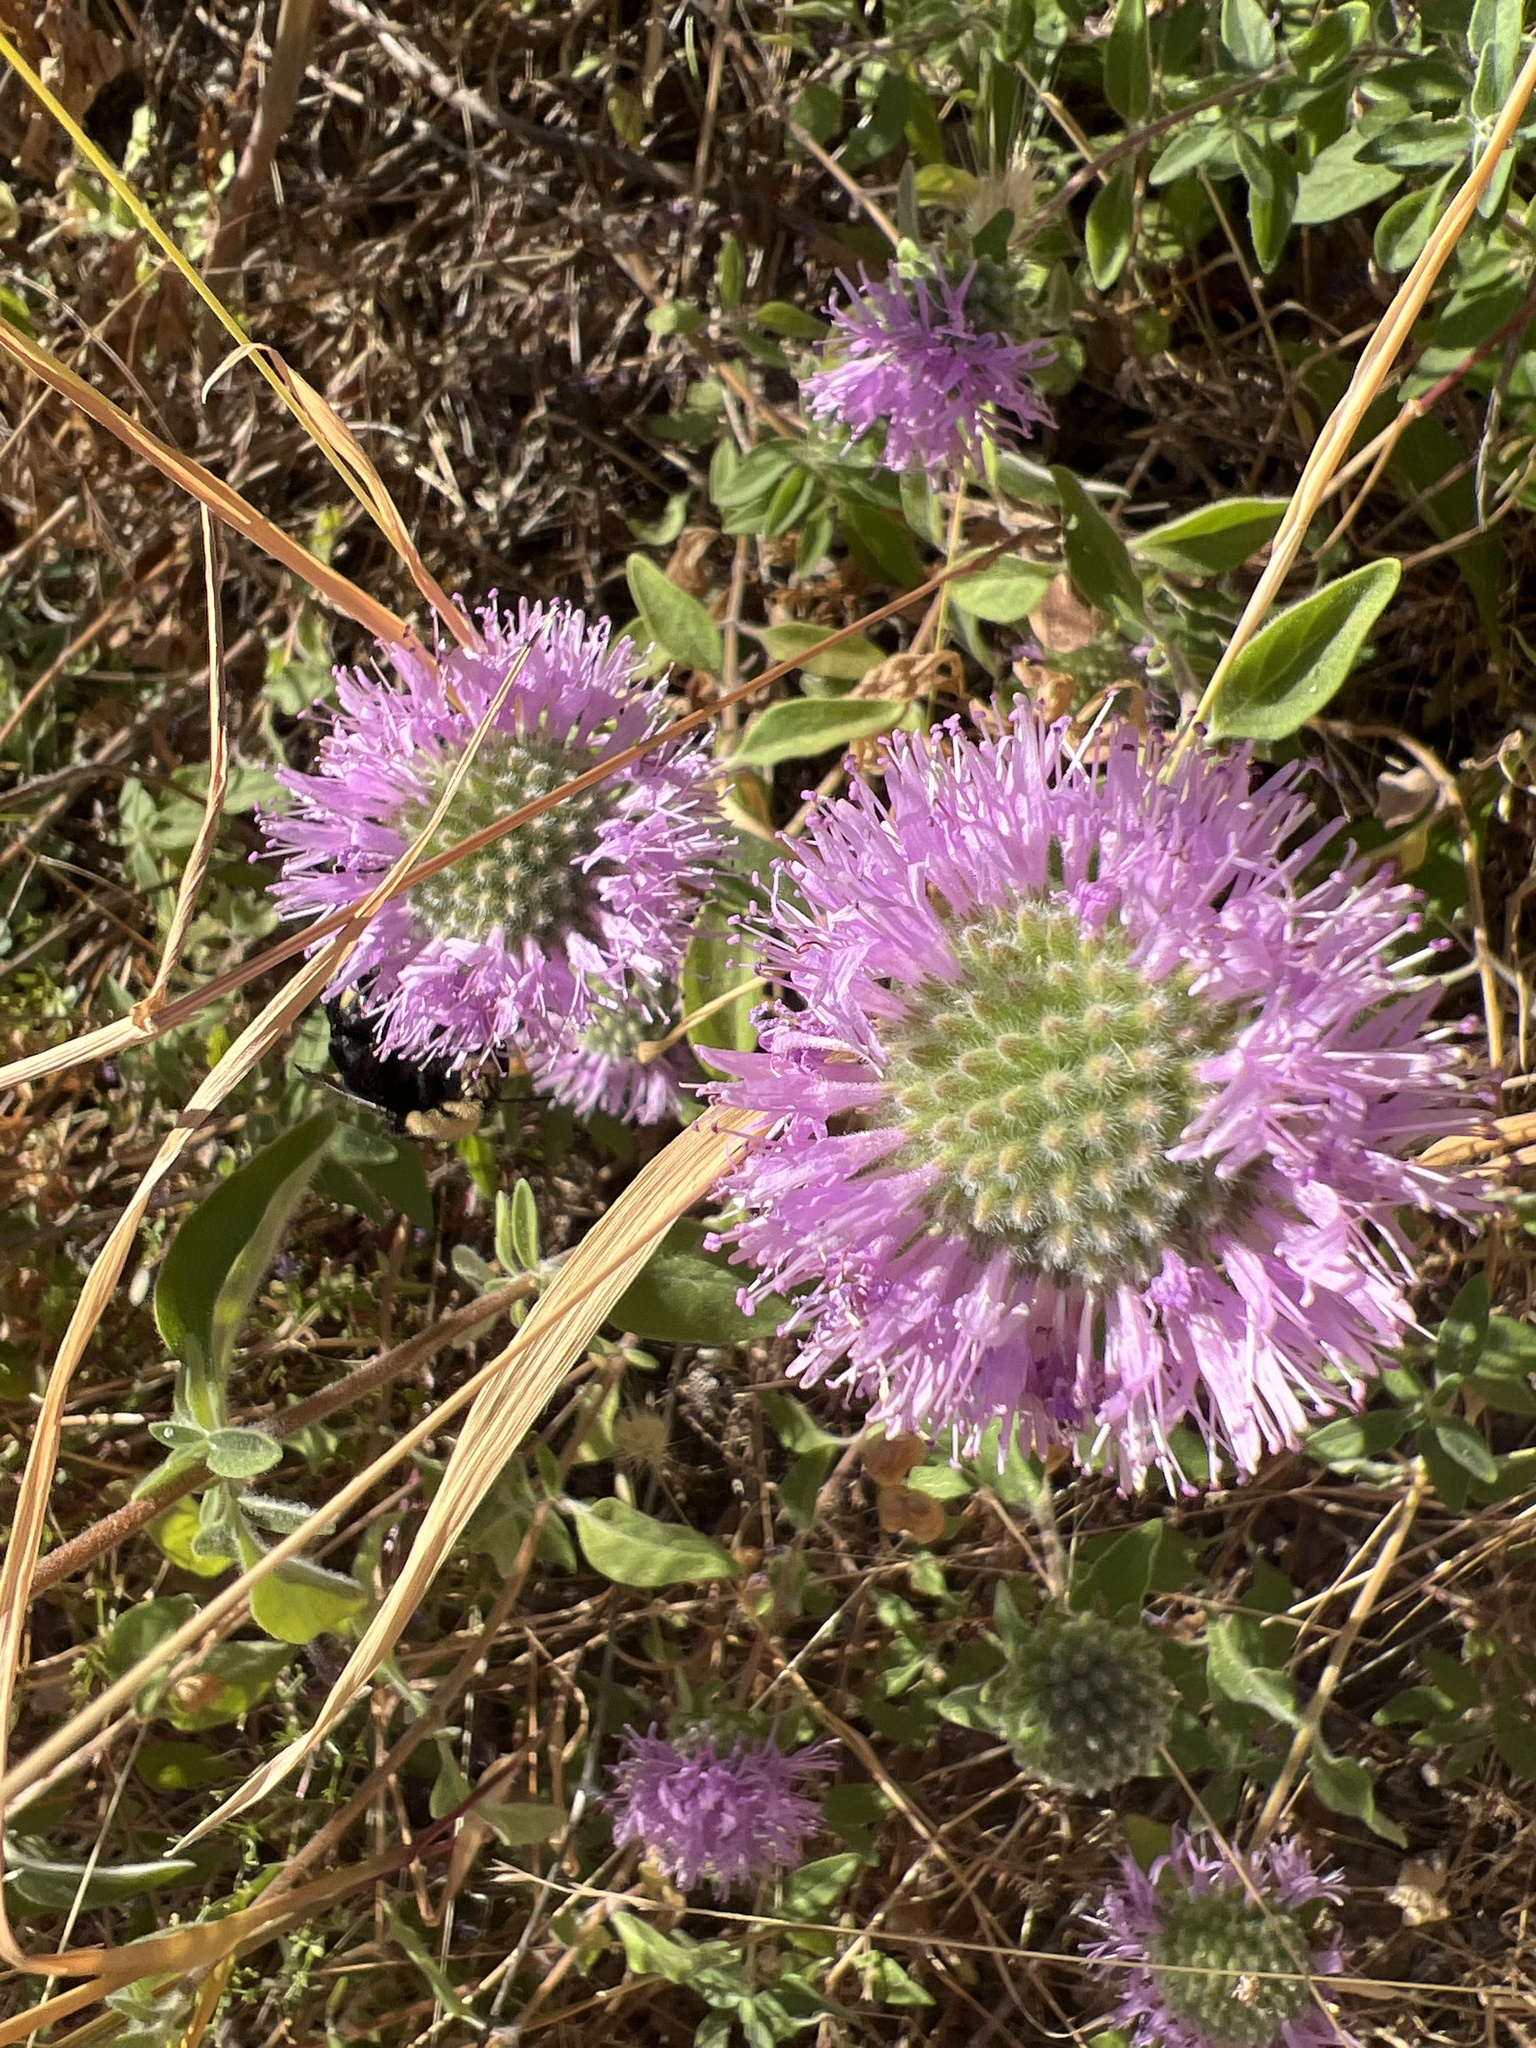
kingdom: Plantae
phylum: Tracheophyta
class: Magnoliopsida
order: Lamiales
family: Lamiaceae
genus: Monardella
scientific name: Monardella odoratissima
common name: Pacific monardella
